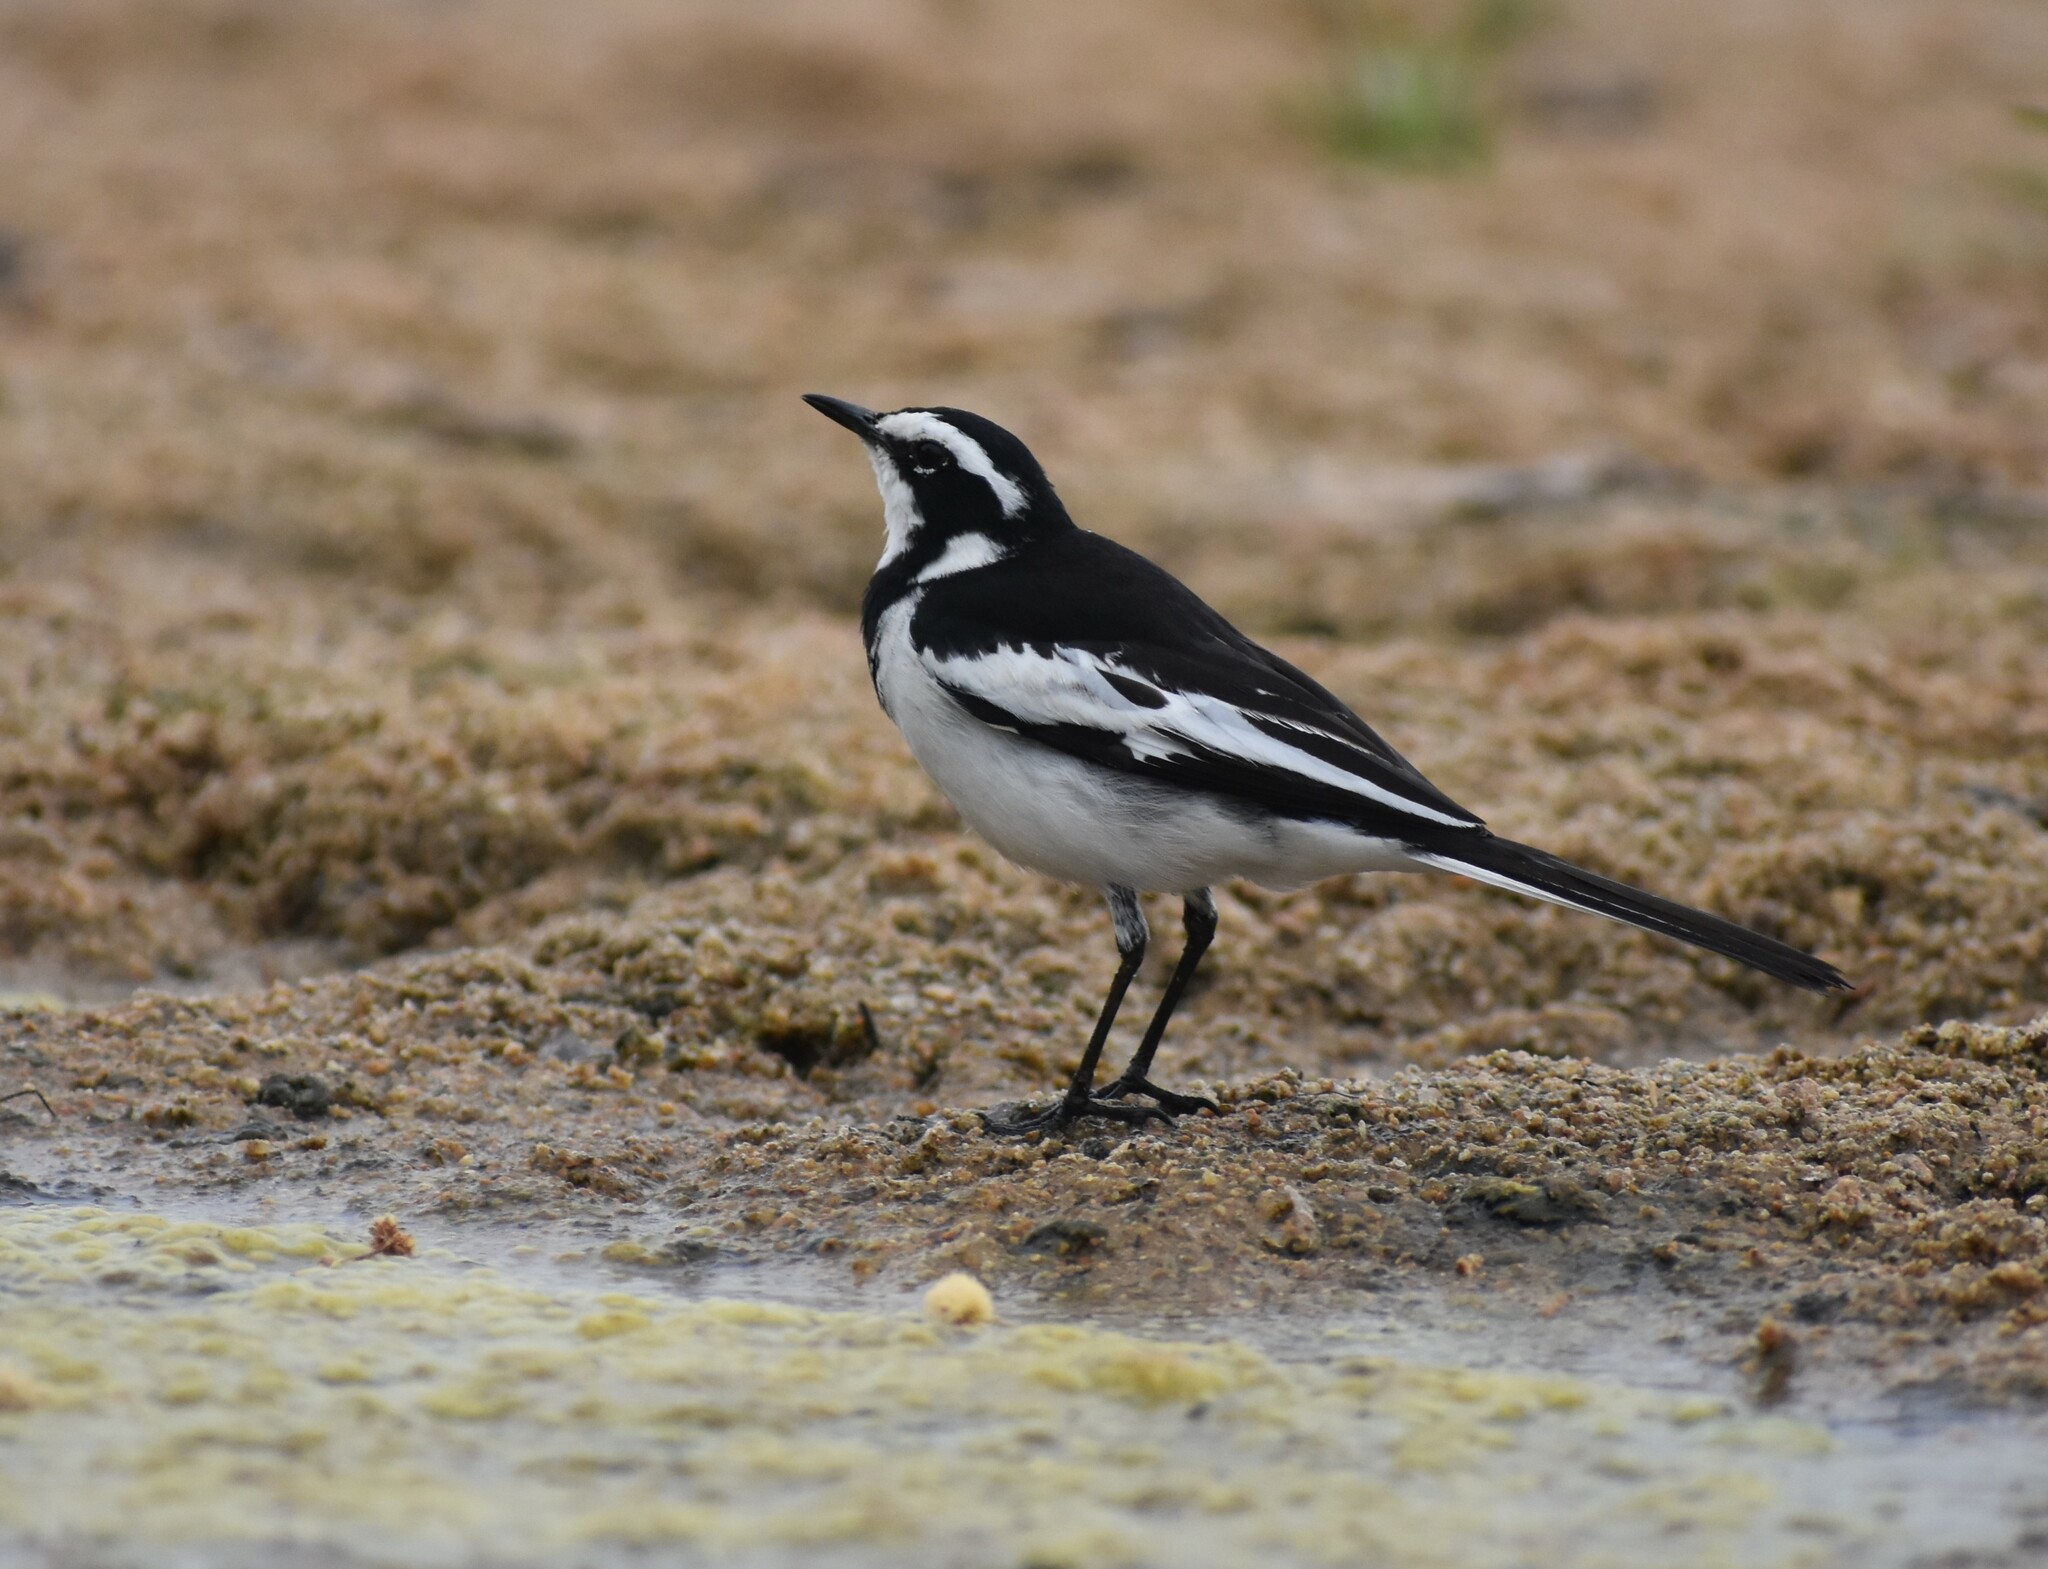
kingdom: Animalia
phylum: Chordata
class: Aves
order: Passeriformes
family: Motacillidae
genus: Motacilla
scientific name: Motacilla aguimp
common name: African pied wagtail
